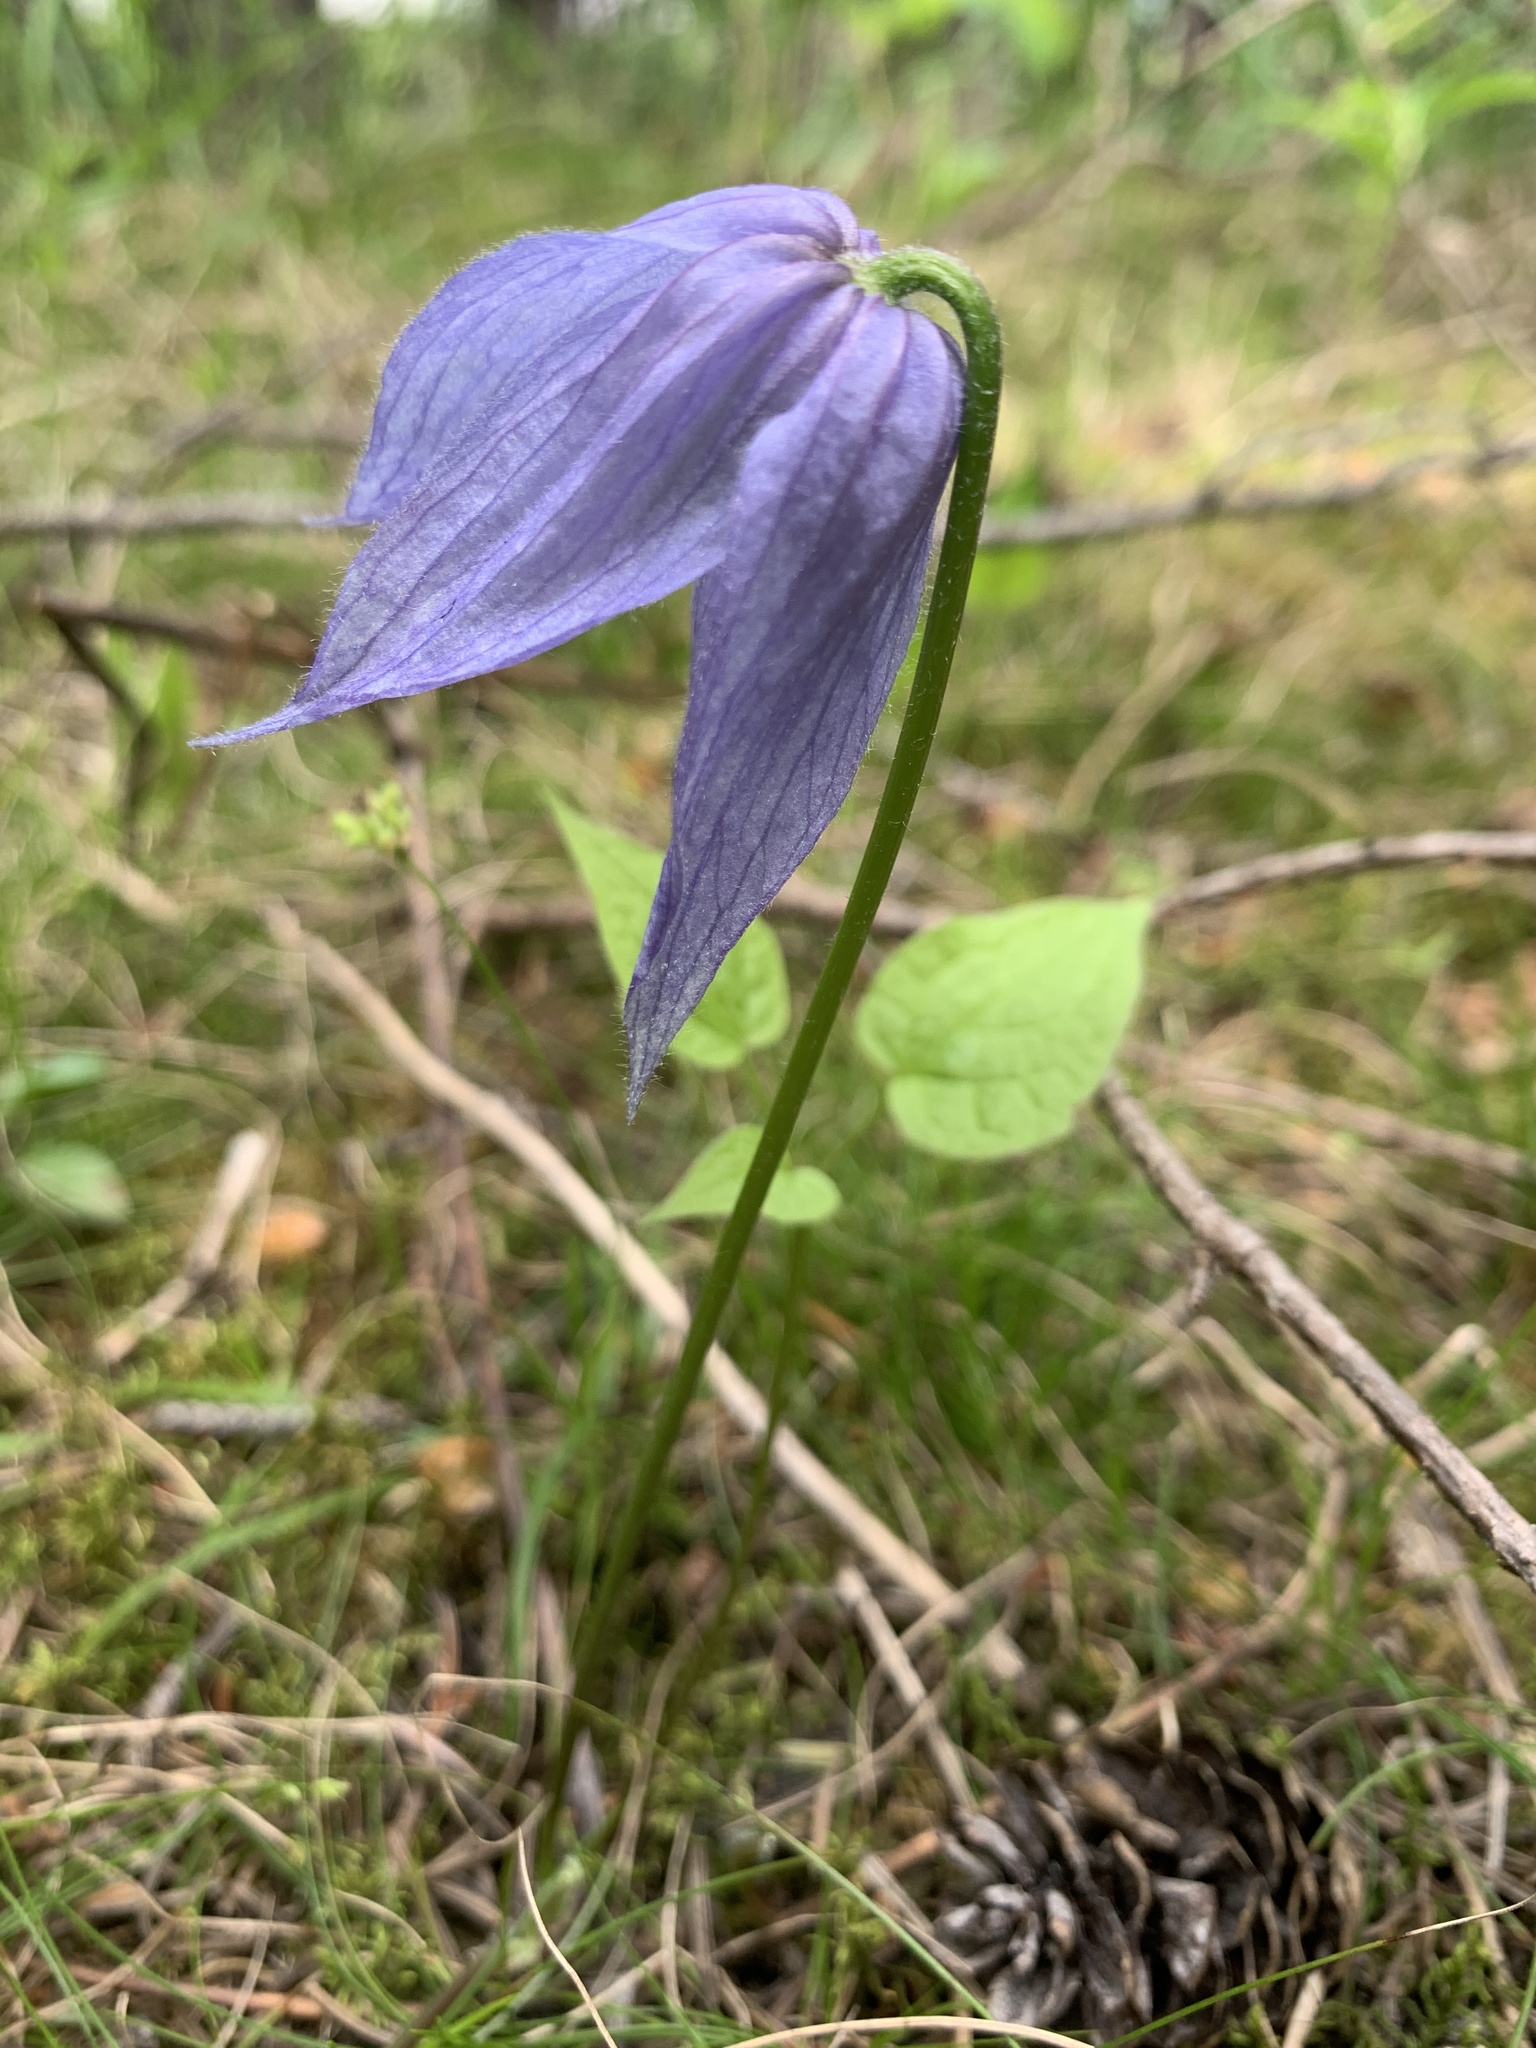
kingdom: Plantae
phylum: Tracheophyta
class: Magnoliopsida
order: Ranunculales
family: Ranunculaceae
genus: Clematis
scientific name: Clematis occidentalis
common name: Purple clematis
